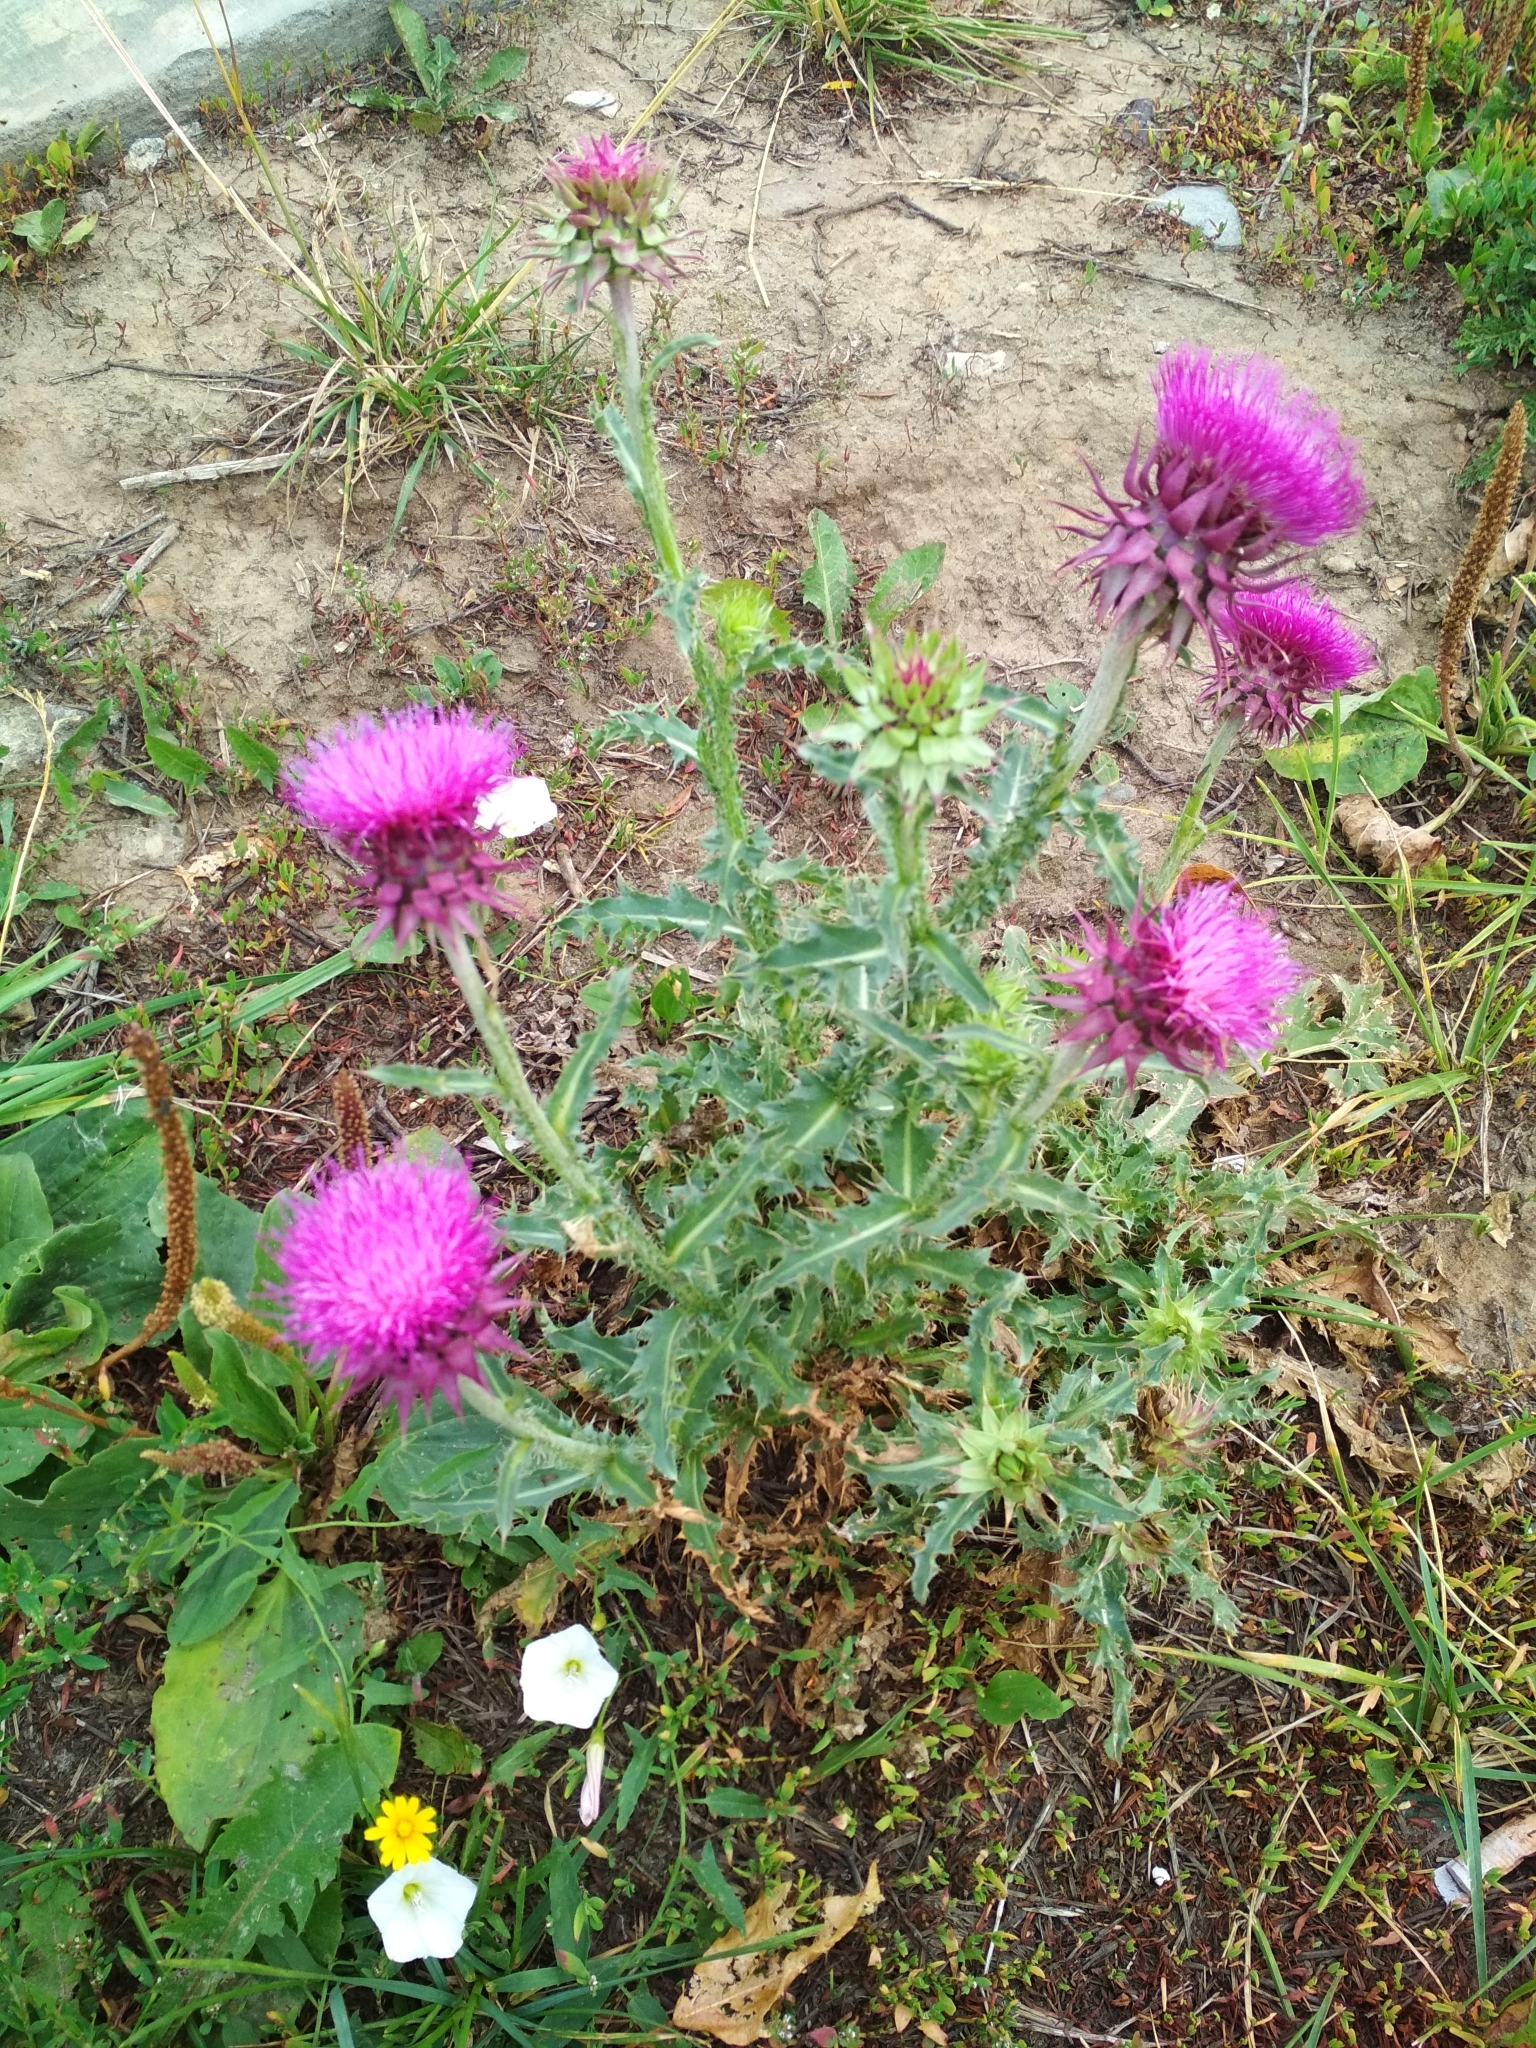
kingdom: Plantae
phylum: Tracheophyta
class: Magnoliopsida
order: Asterales
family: Asteraceae
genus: Carduus
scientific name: Carduus nutans
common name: Musk thistle
